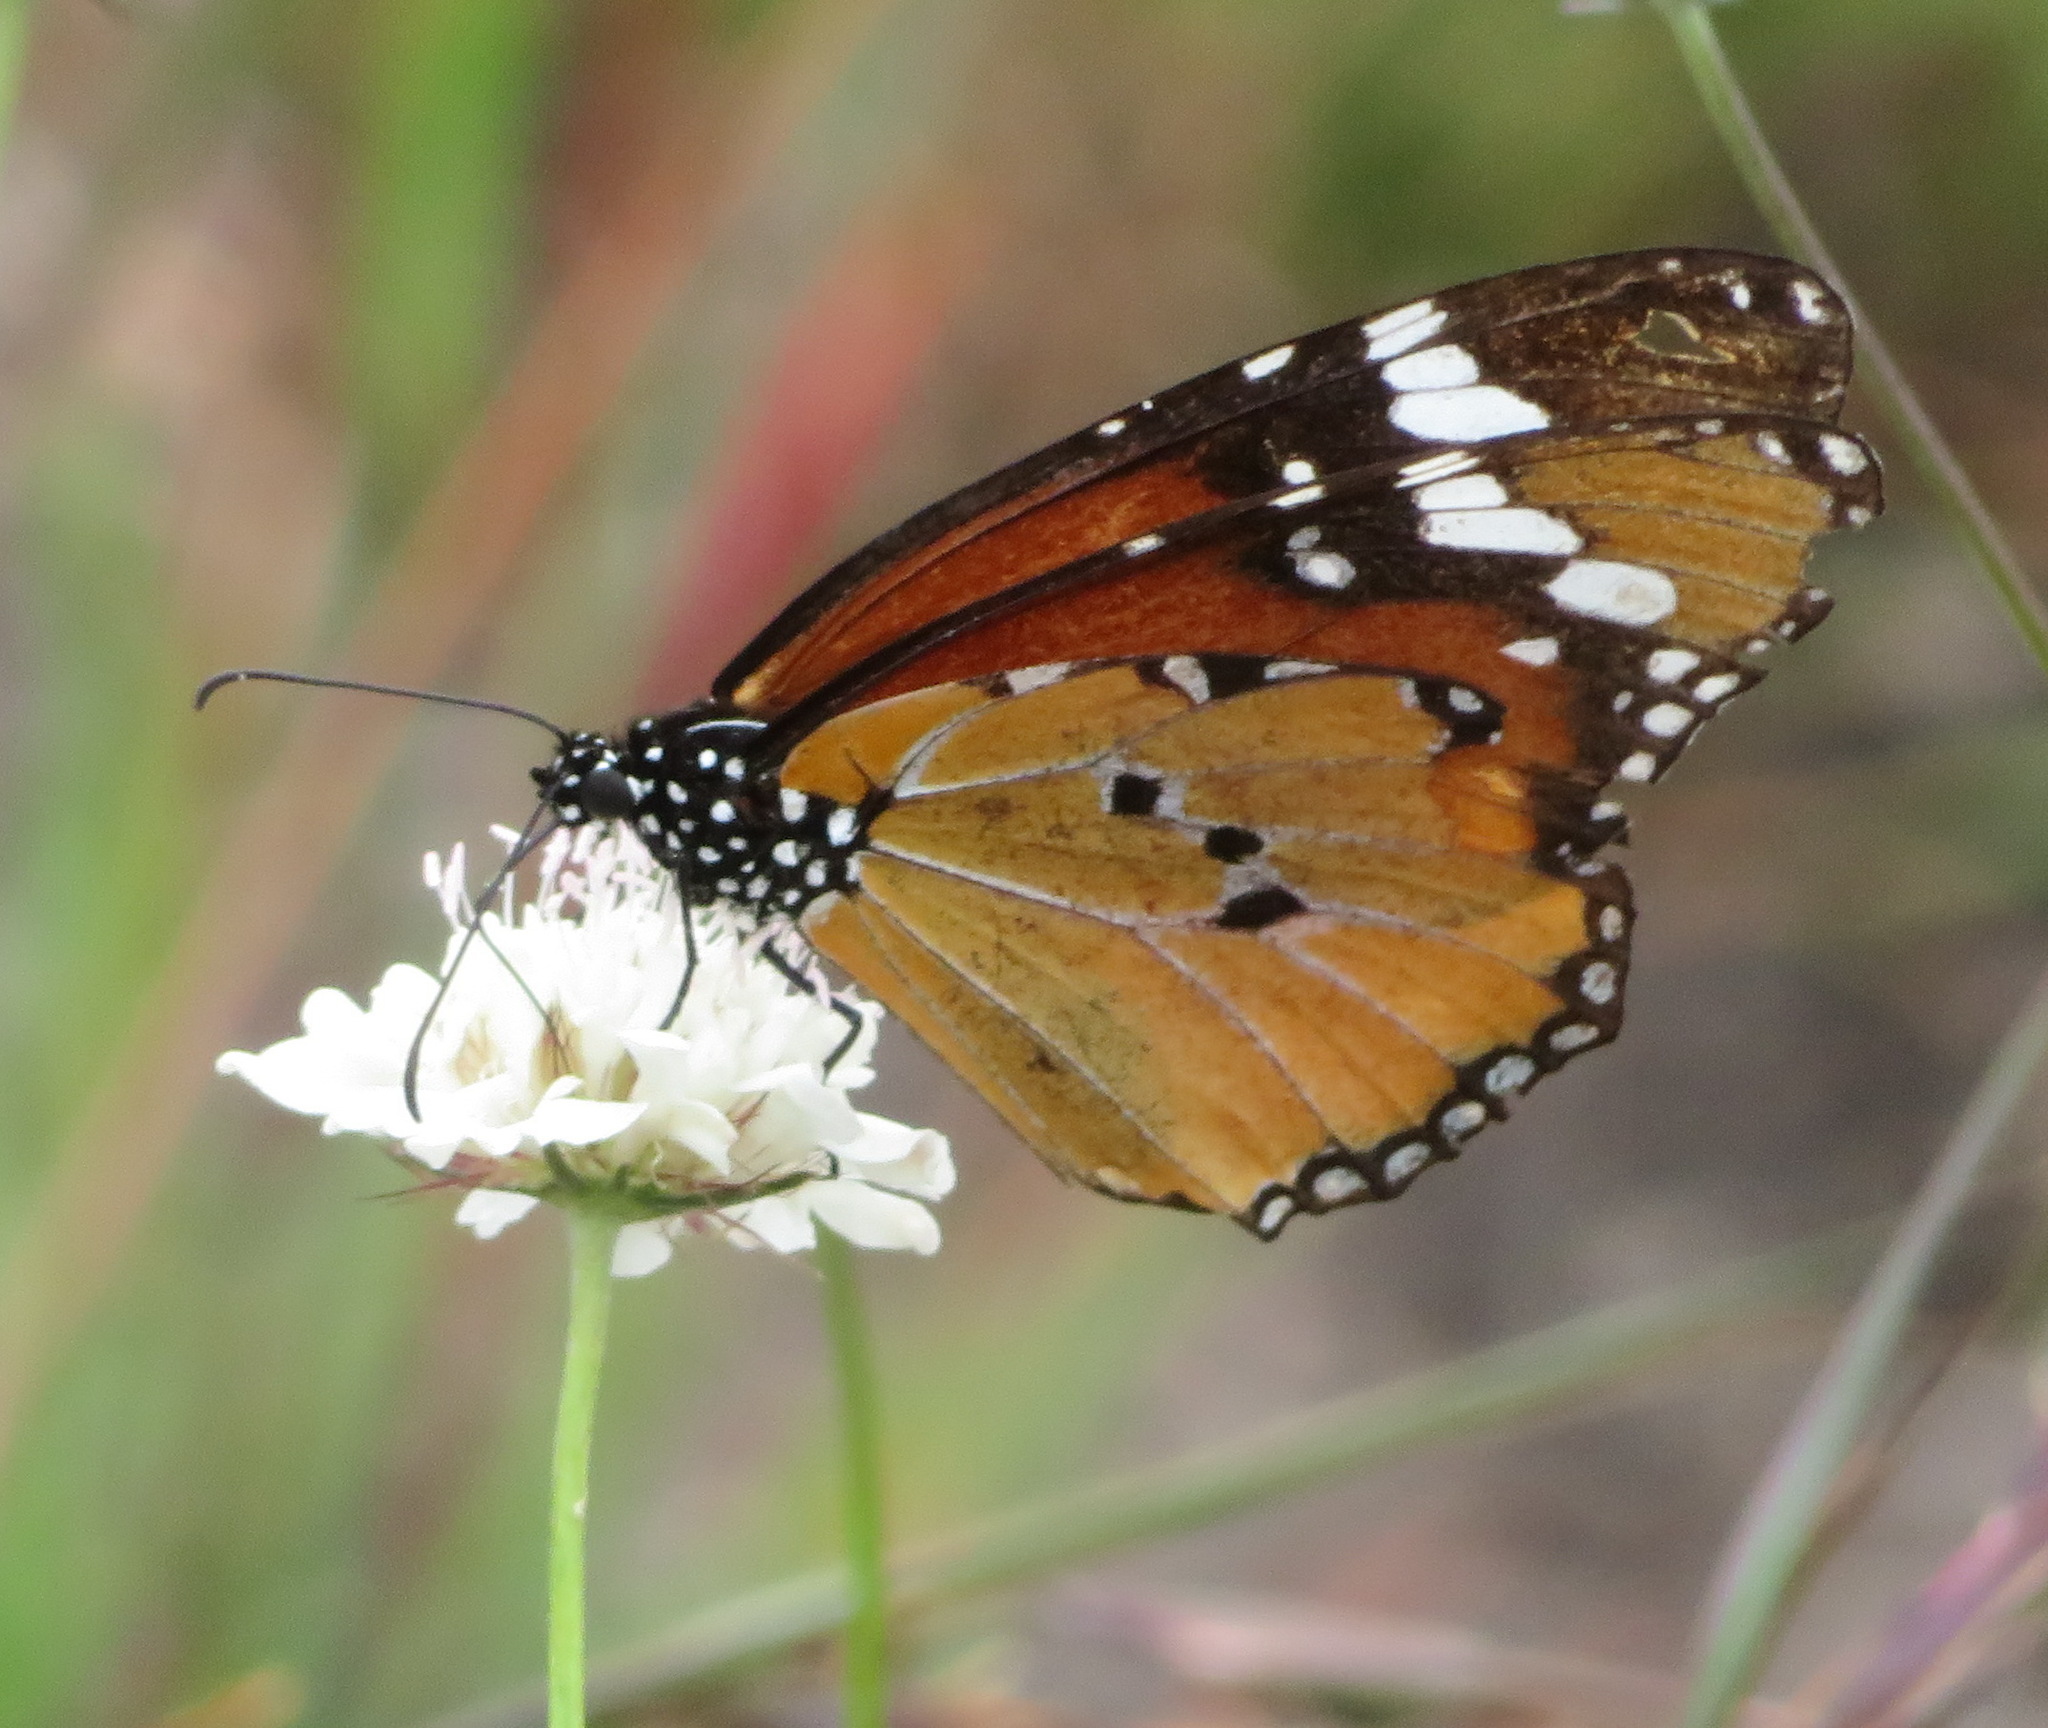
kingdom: Animalia
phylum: Arthropoda
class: Insecta
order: Lepidoptera
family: Nymphalidae
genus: Danaus
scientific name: Danaus chrysippus
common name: Plain tiger
